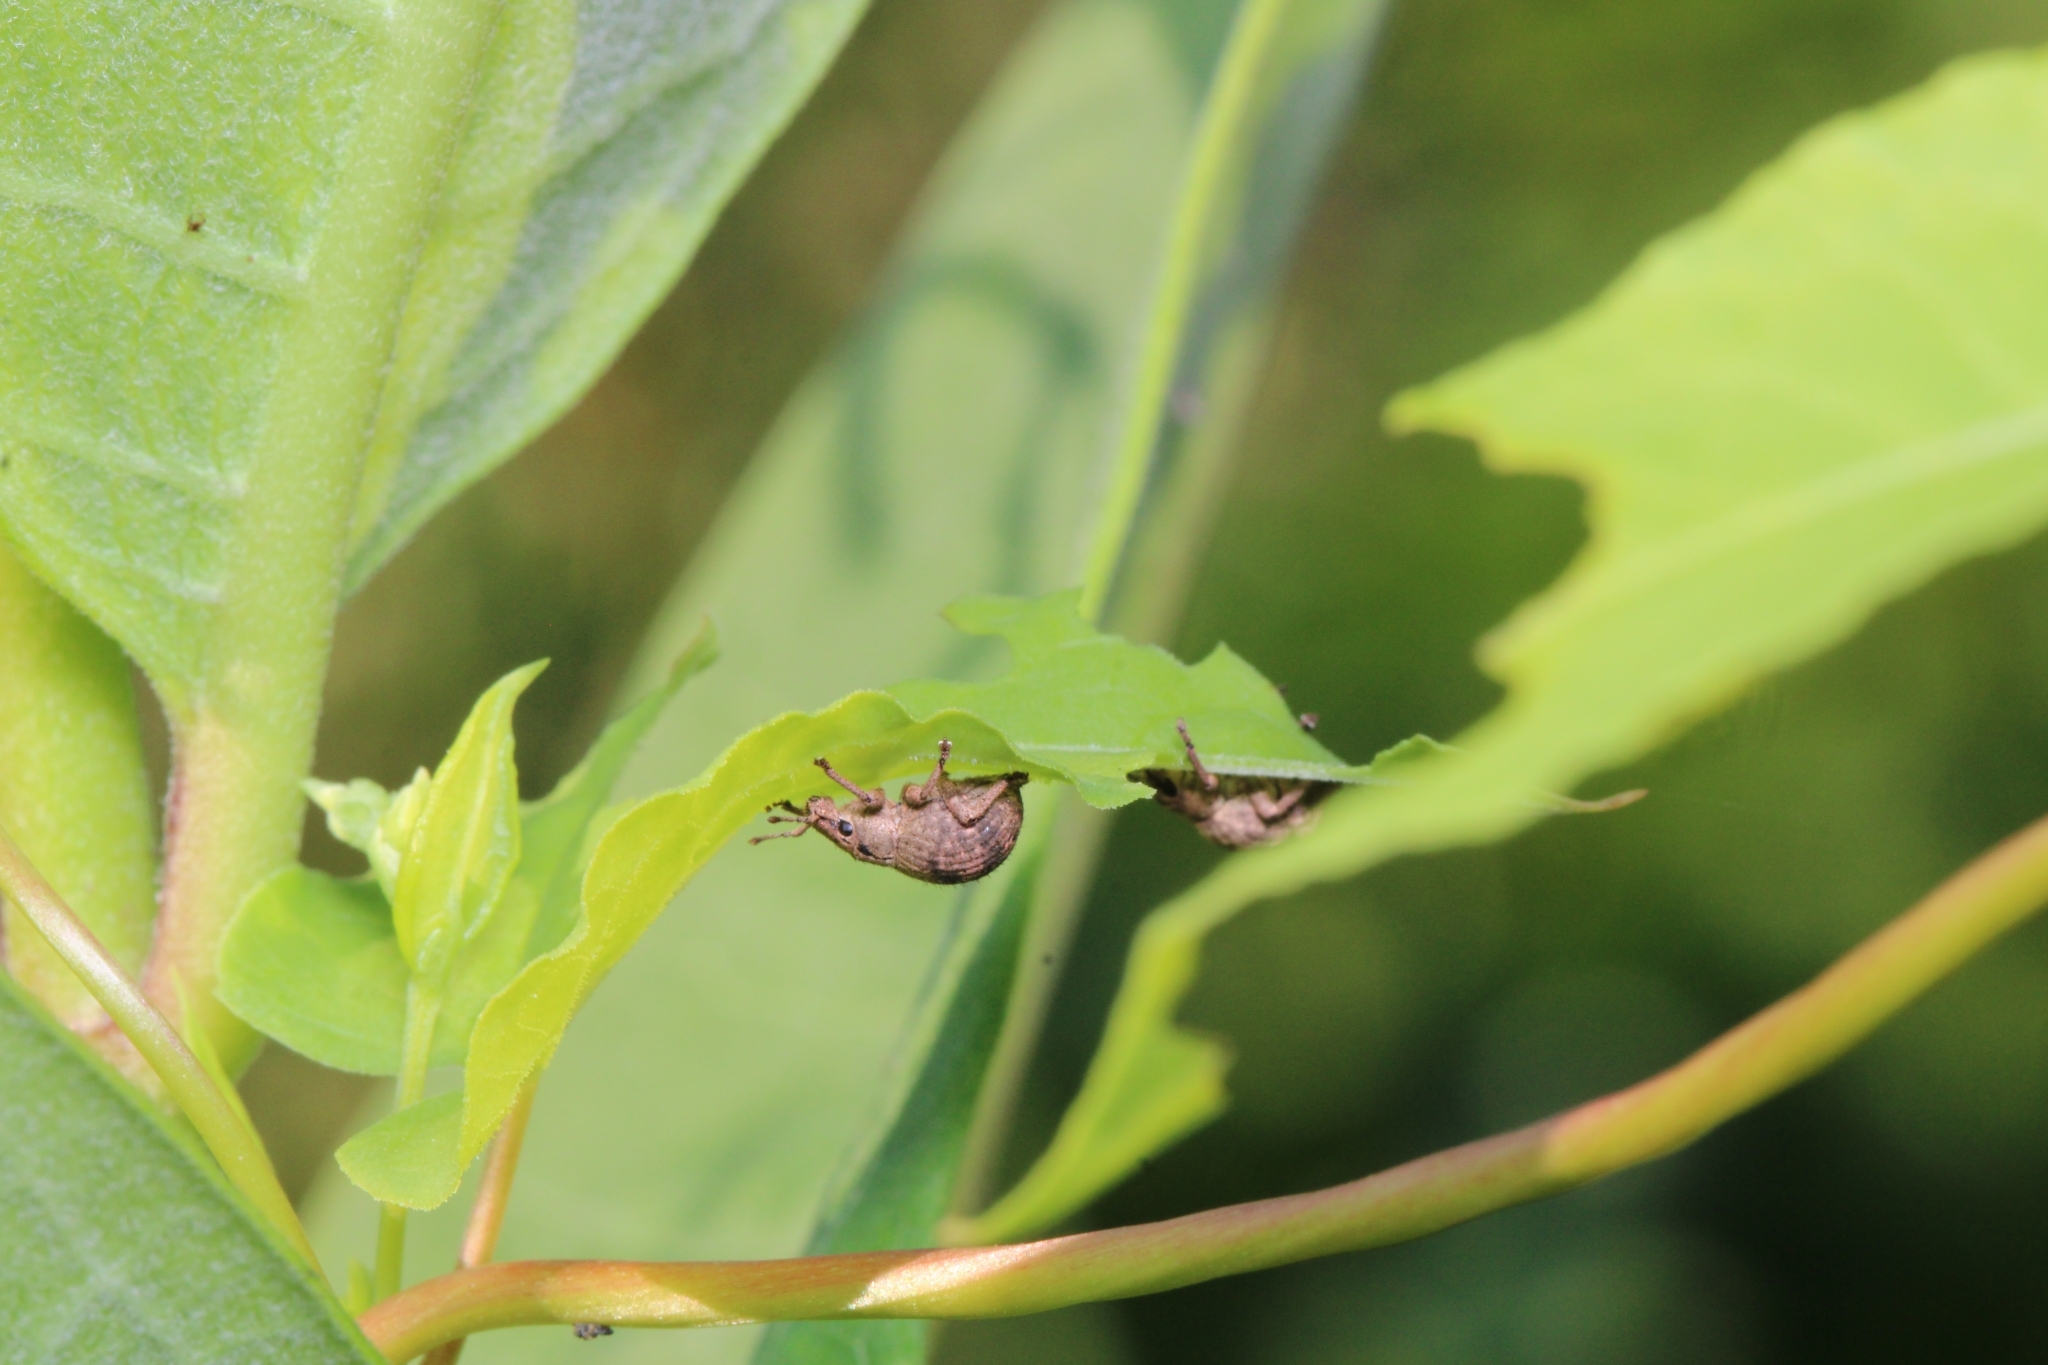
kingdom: Animalia
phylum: Arthropoda
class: Insecta
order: Coleoptera
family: Curculionidae
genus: Pseudocneorhinus
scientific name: Pseudocneorhinus bifasciatus
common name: Two-banded japanese weevil
